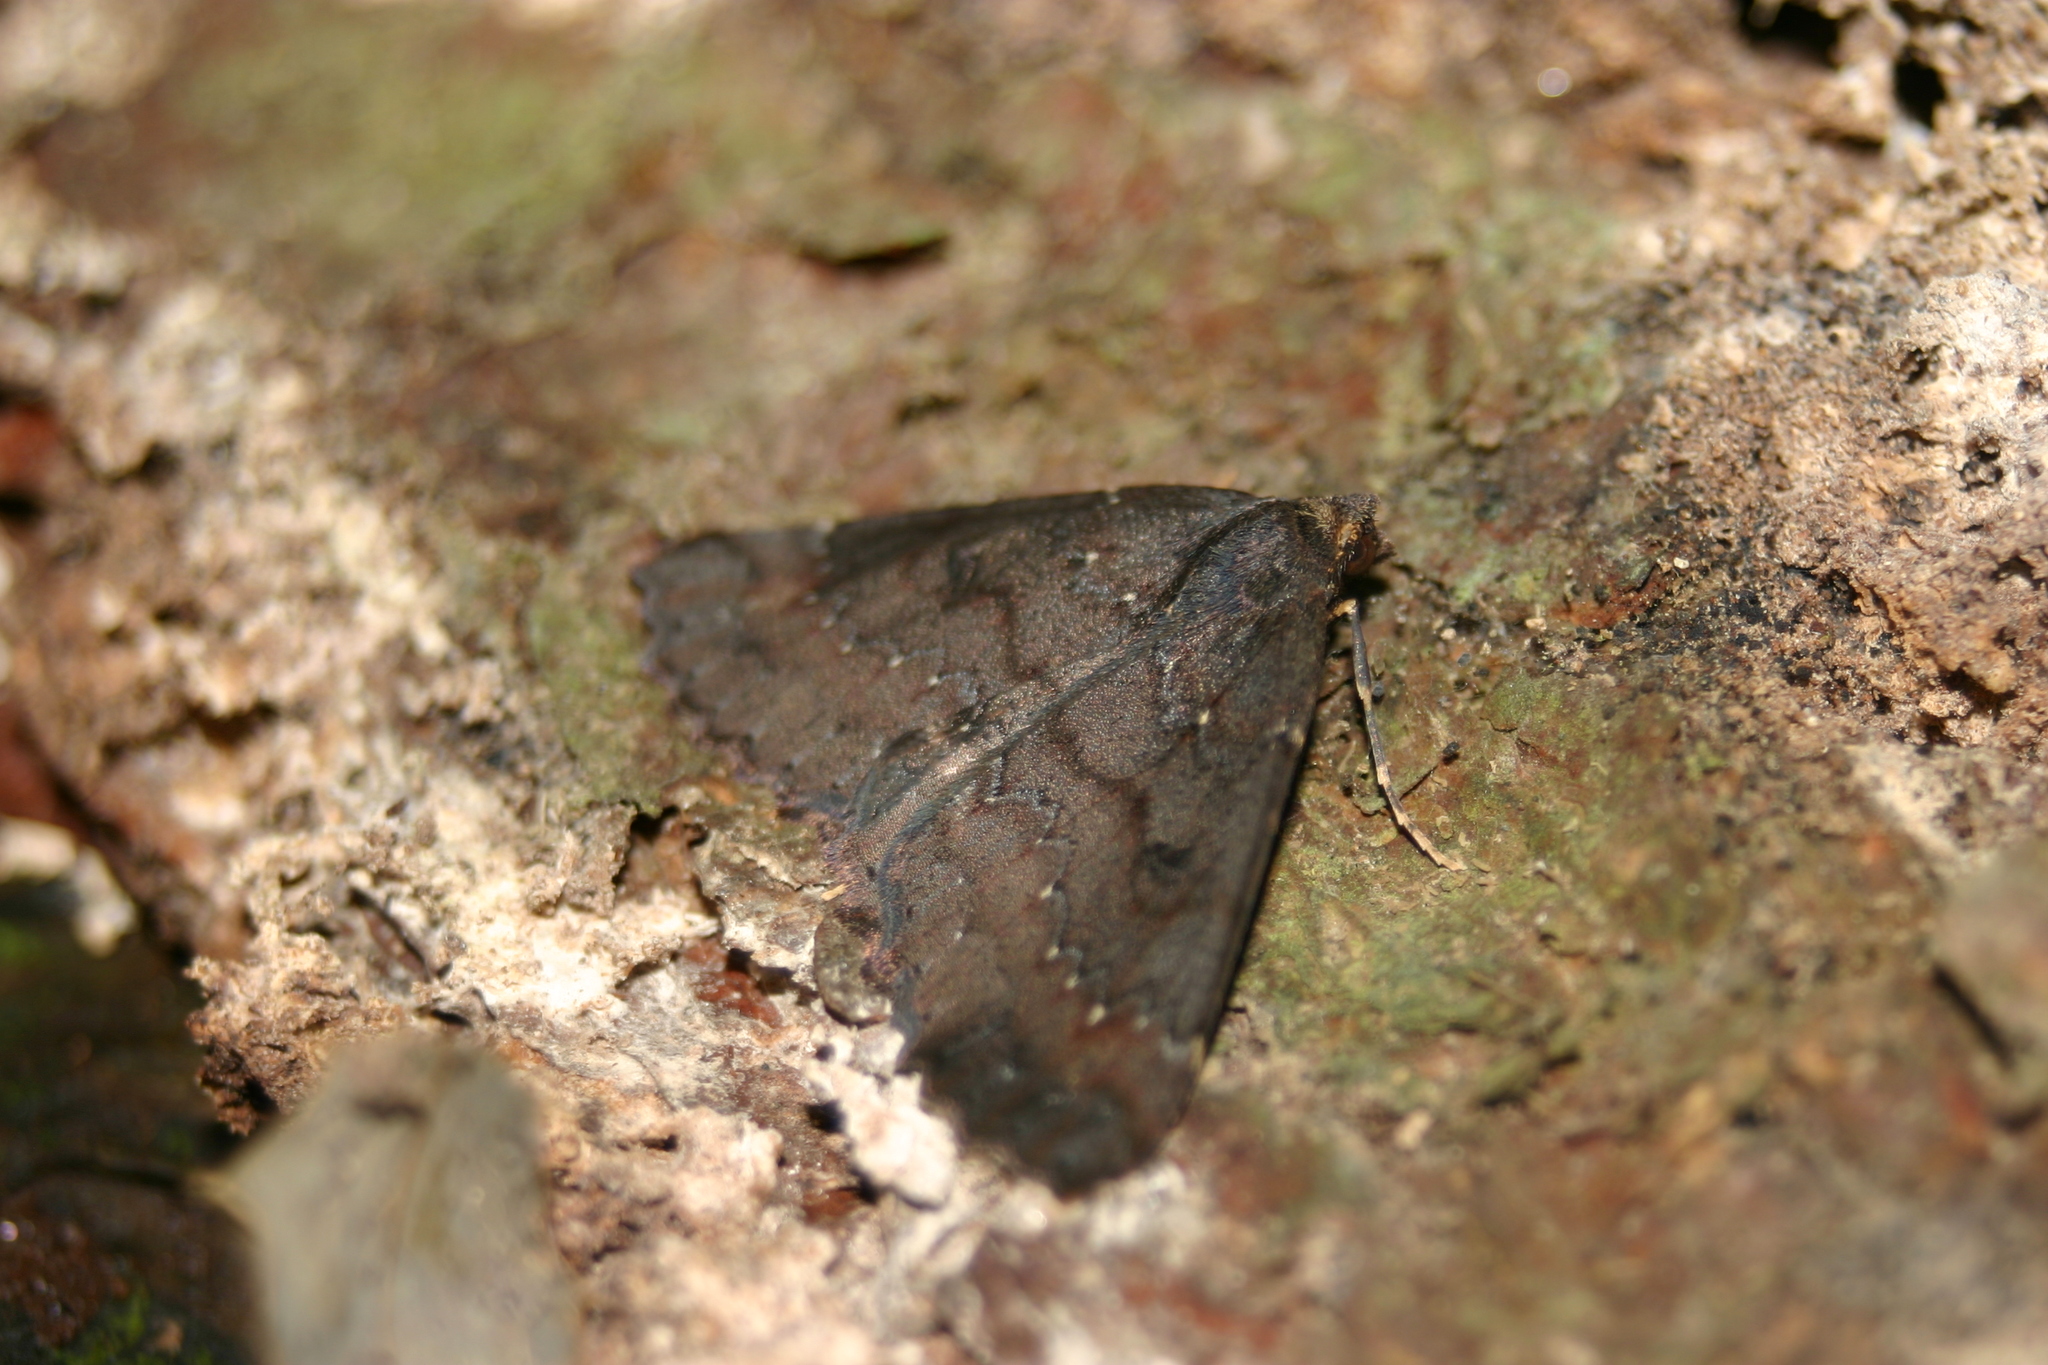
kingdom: Animalia
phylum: Arthropoda
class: Insecta
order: Lepidoptera
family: Geometridae
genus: Cleora
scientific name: Cleora scriptaria
